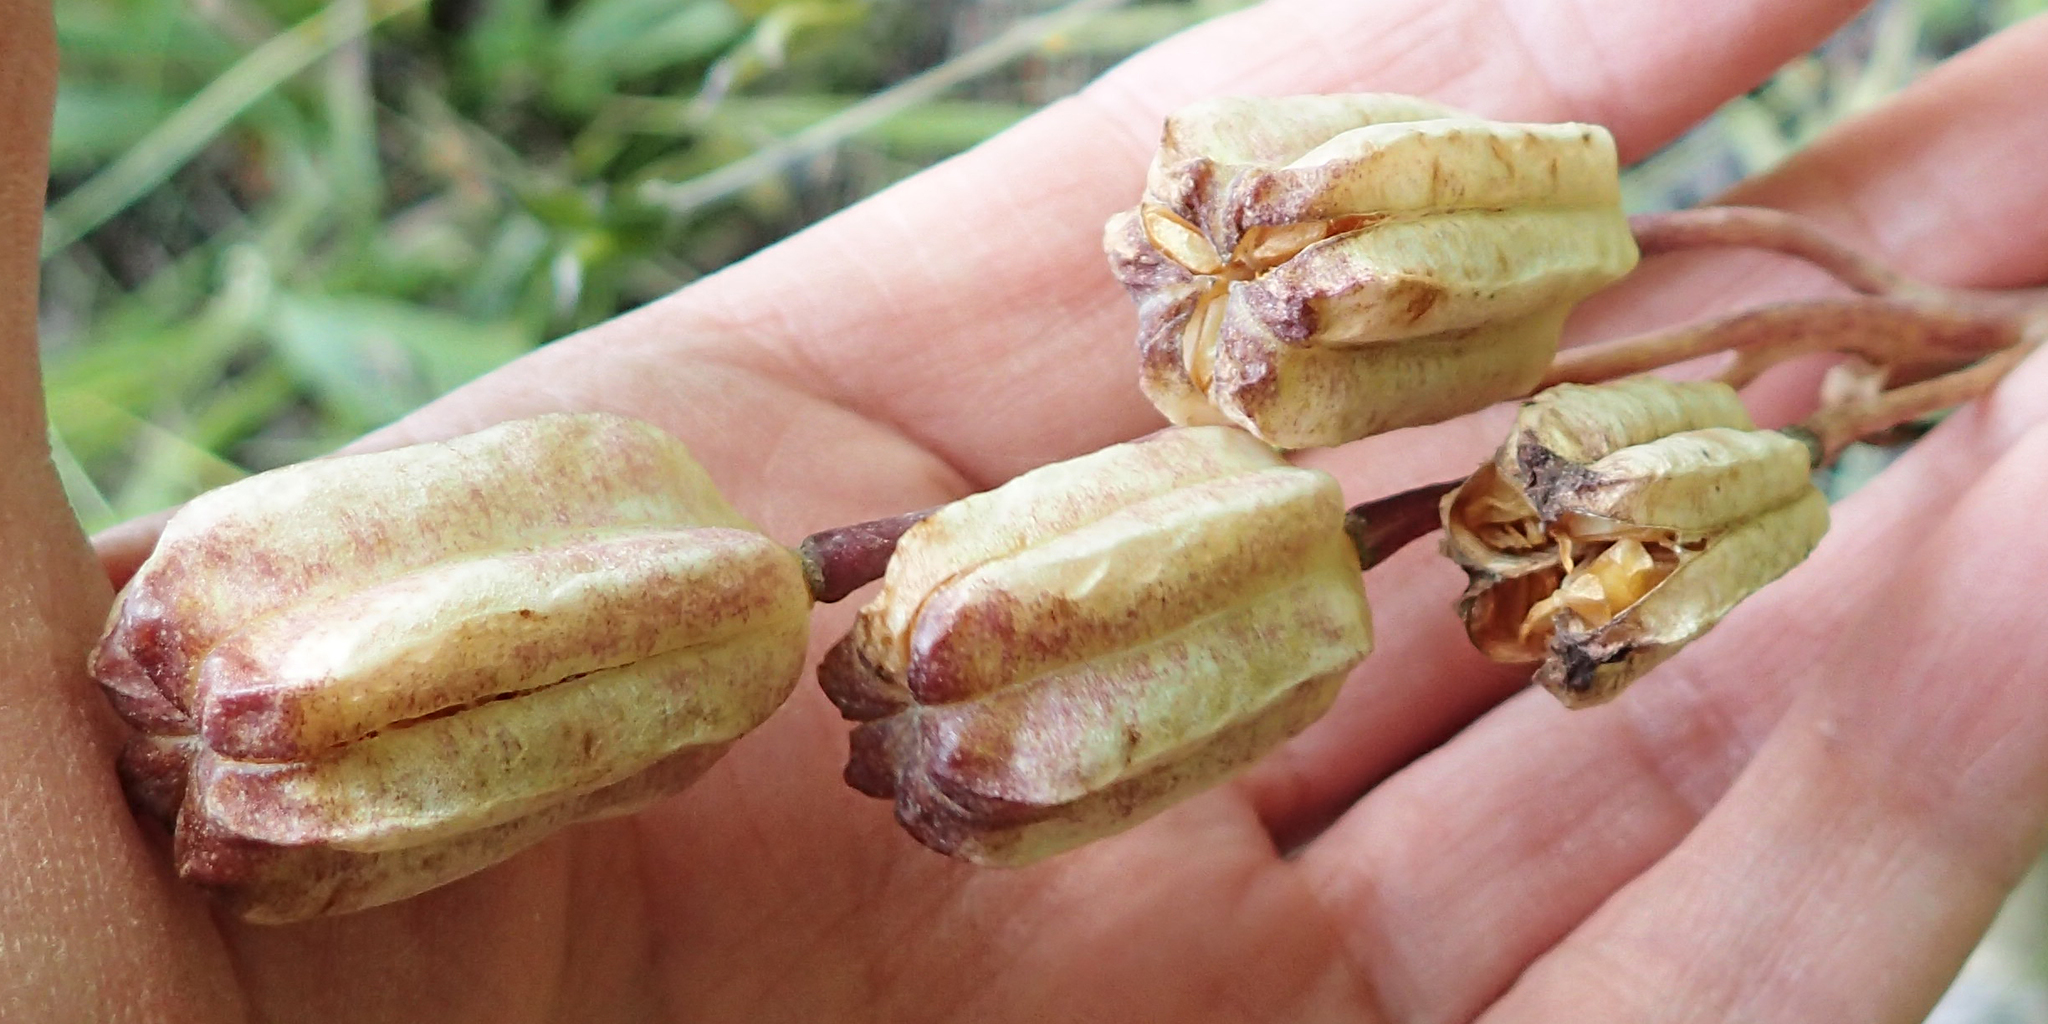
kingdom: Plantae
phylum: Tracheophyta
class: Liliopsida
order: Liliales
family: Liliaceae
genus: Fritillaria
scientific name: Fritillaria camschatcensis
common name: Kamchatka fritillary
